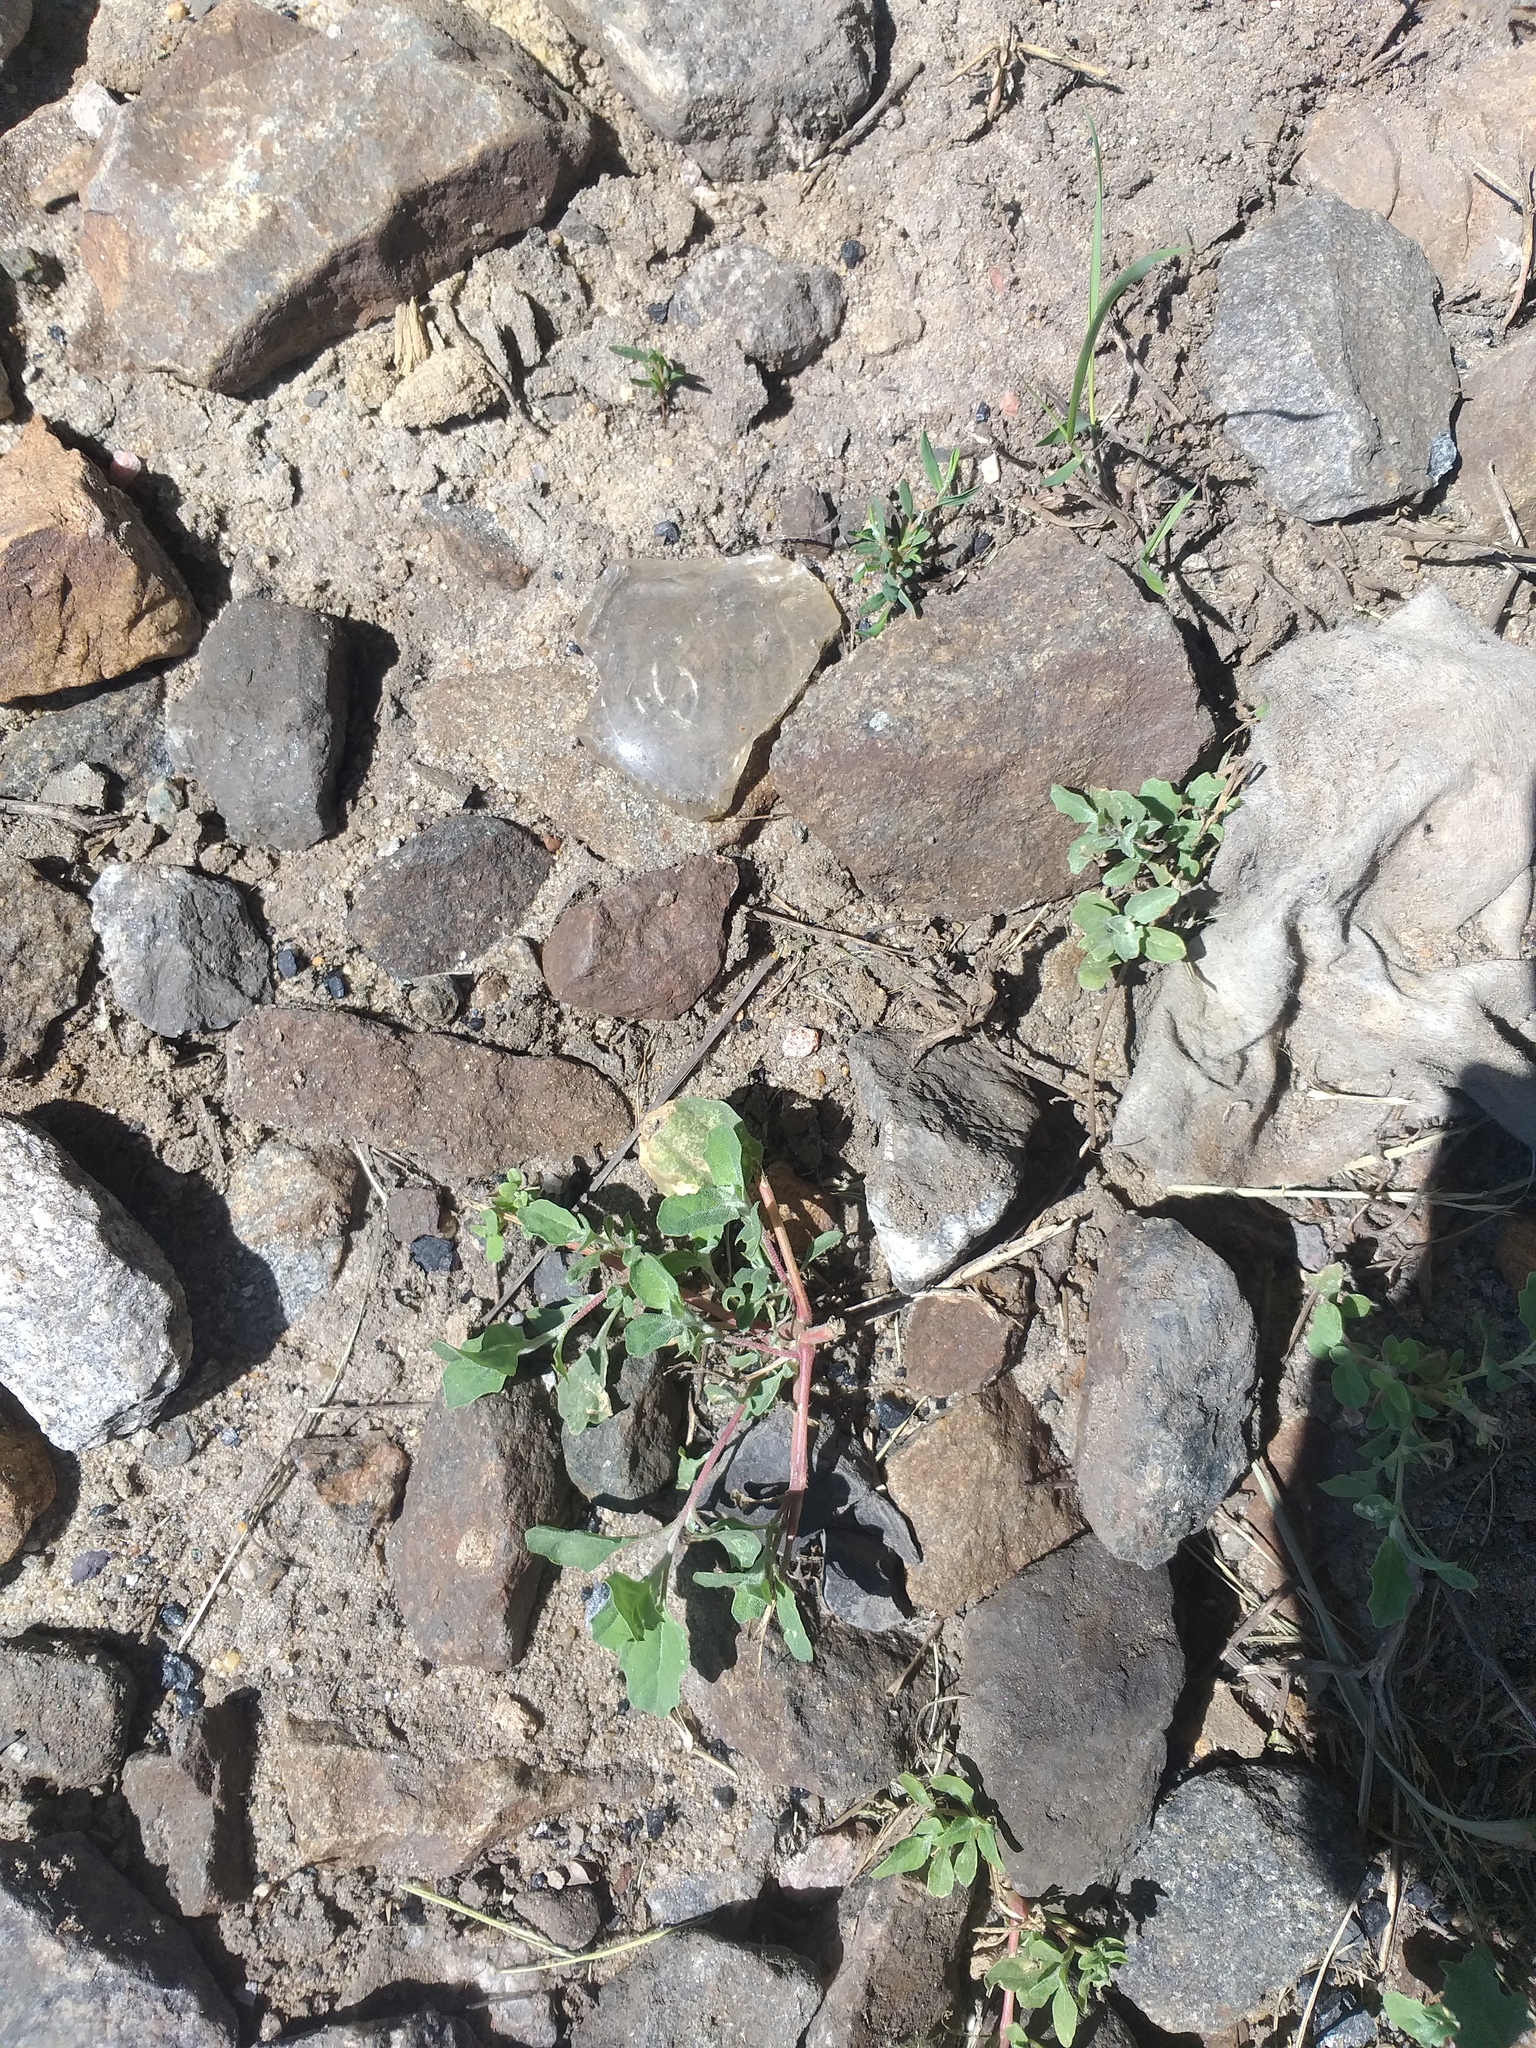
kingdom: Plantae
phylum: Tracheophyta
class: Magnoliopsida
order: Caryophyllales
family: Amaranthaceae
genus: Atriplex
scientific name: Atriplex tatarica
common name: Tatarian orache
